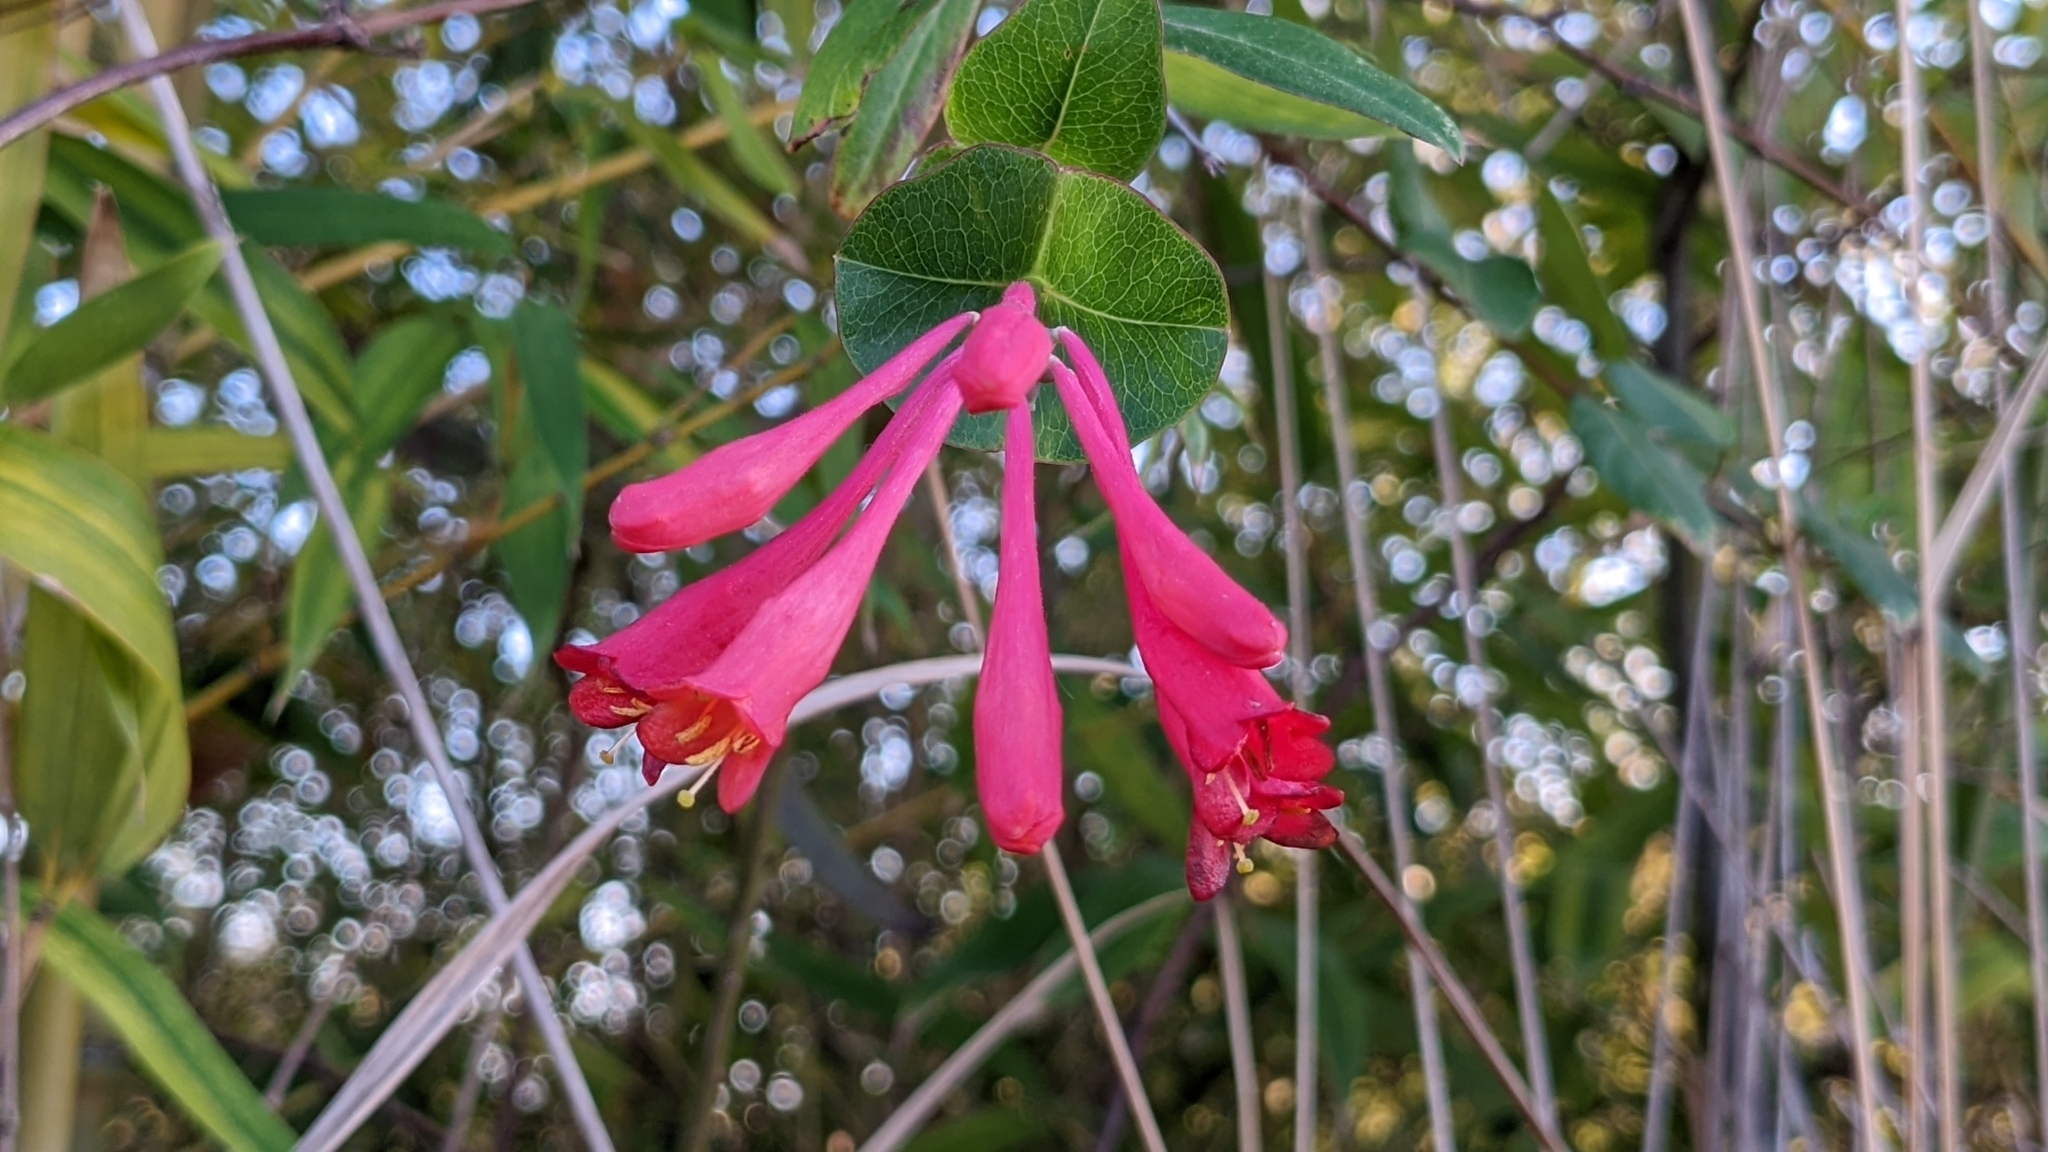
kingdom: Plantae
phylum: Tracheophyta
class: Magnoliopsida
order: Dipsacales
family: Caprifoliaceae
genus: Lonicera
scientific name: Lonicera sempervirens
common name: Coral honeysuckle
